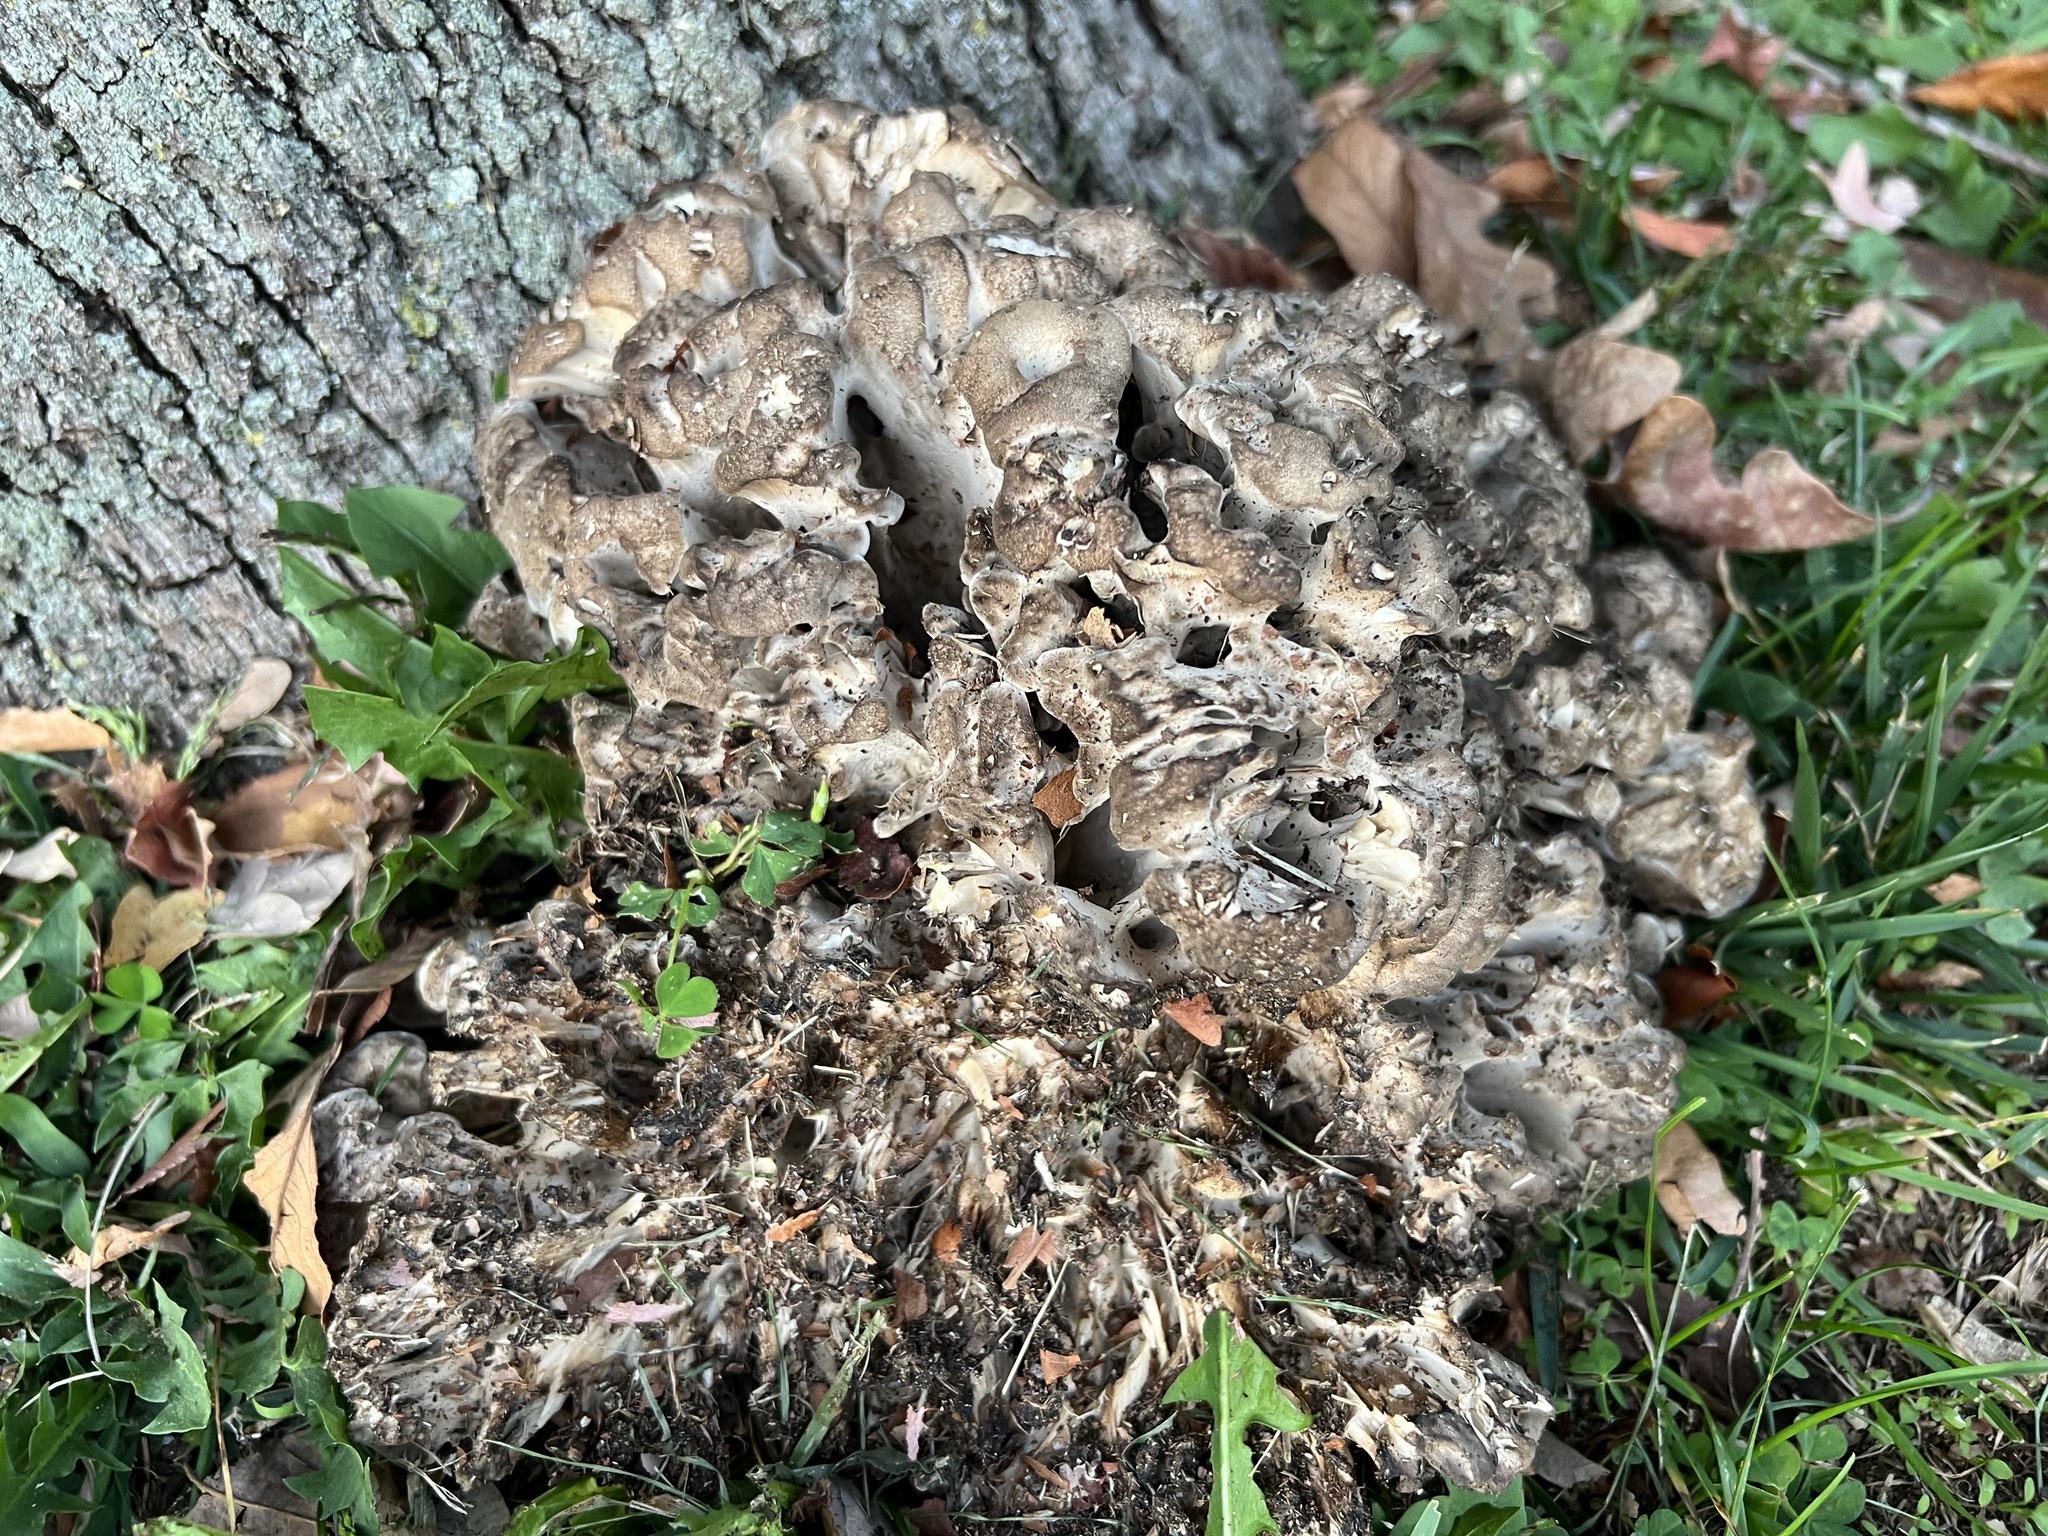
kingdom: Fungi
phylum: Basidiomycota
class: Agaricomycetes
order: Polyporales
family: Grifolaceae
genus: Grifola
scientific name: Grifola frondosa
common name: Hen of the woods
